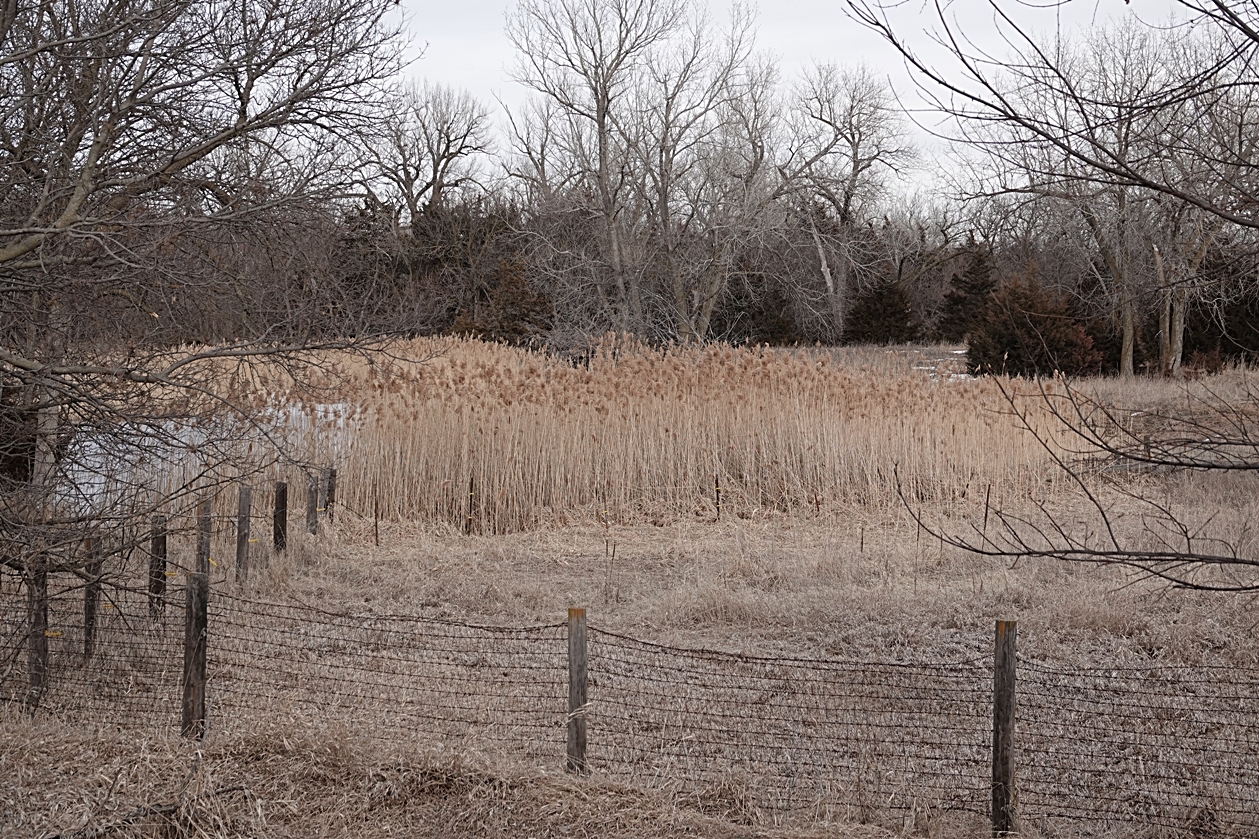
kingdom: Plantae
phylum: Tracheophyta
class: Liliopsida
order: Poales
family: Poaceae
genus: Phragmites
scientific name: Phragmites australis
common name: Common reed
